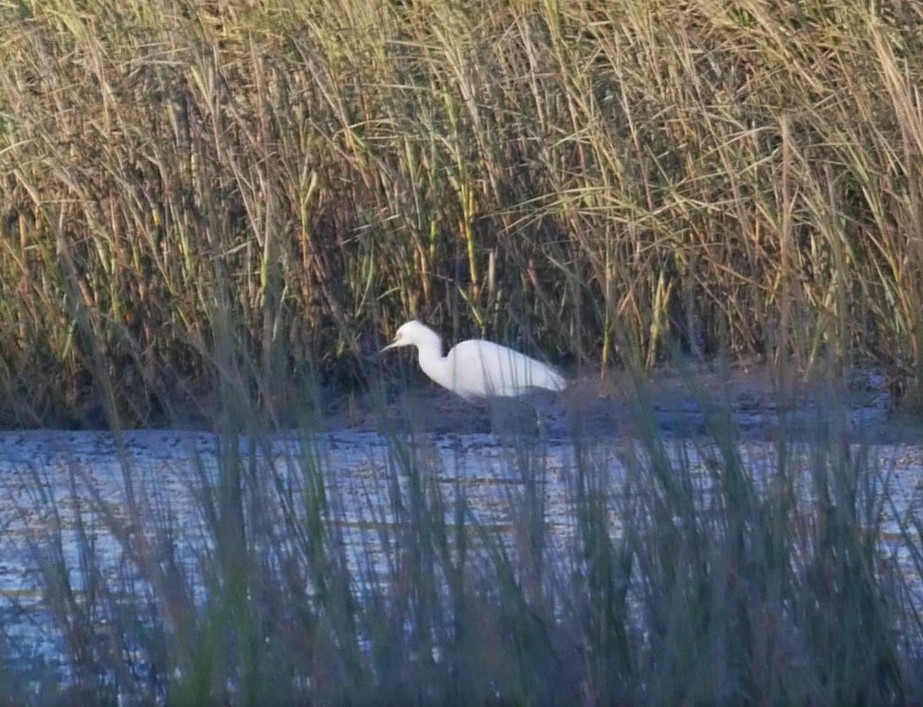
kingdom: Animalia
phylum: Chordata
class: Aves
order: Pelecaniformes
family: Ardeidae
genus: Ardea
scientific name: Ardea alba
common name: Great egret
